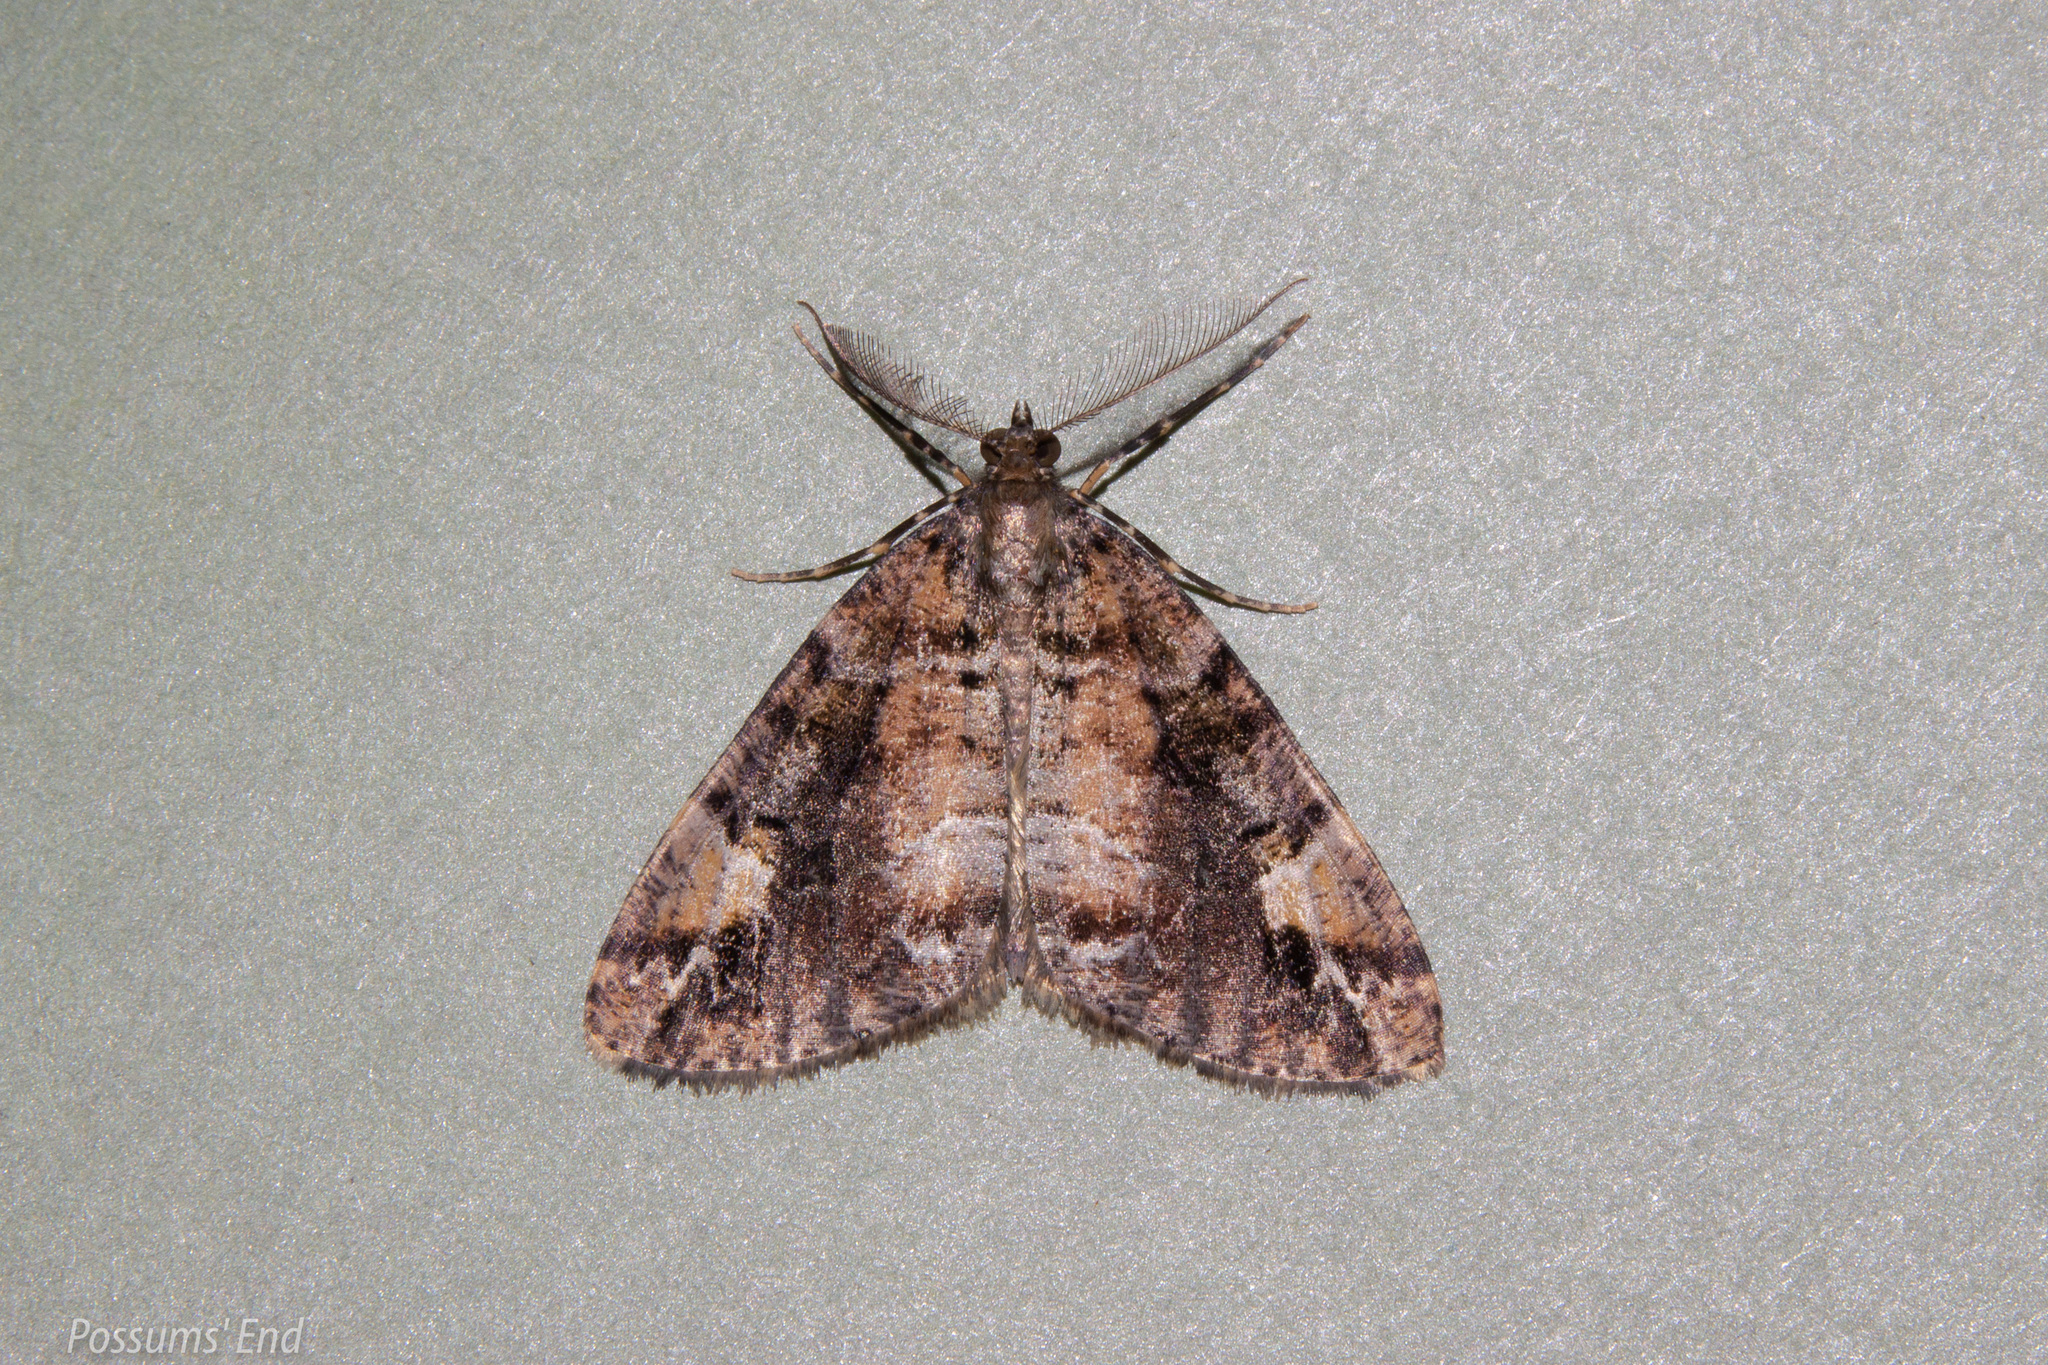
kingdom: Animalia
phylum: Arthropoda
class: Insecta
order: Lepidoptera
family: Geometridae
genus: Pseudocoremia
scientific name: Pseudocoremia productata
